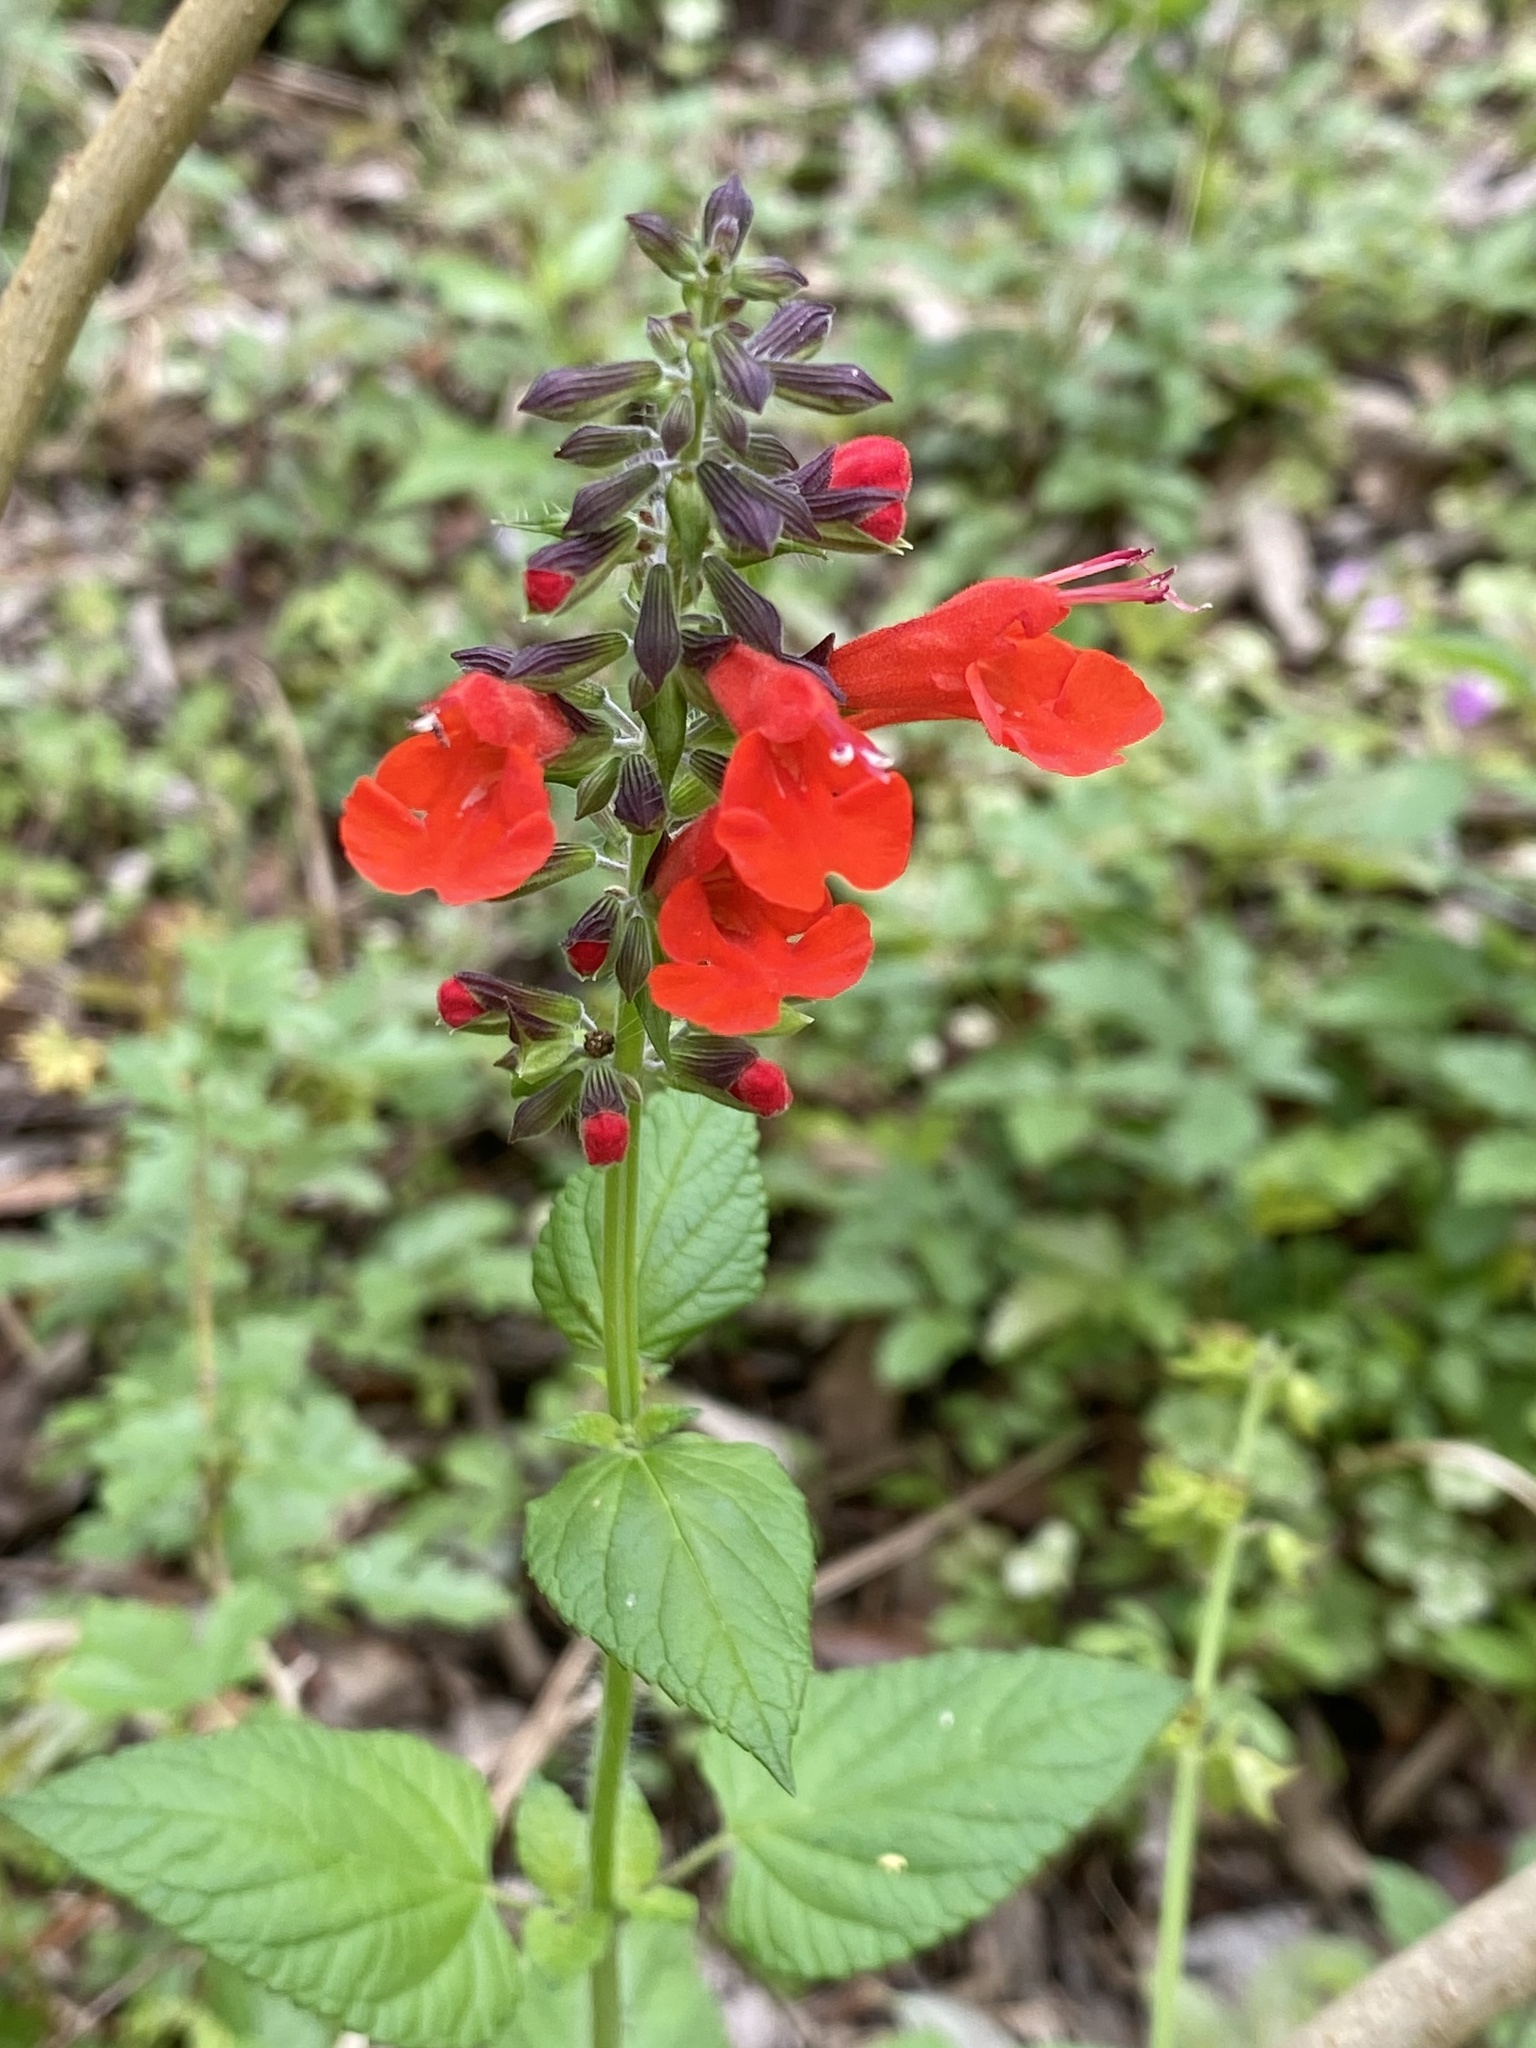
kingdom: Plantae
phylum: Tracheophyta
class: Magnoliopsida
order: Lamiales
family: Lamiaceae
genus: Salvia
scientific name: Salvia coccinea
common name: Blood sage
